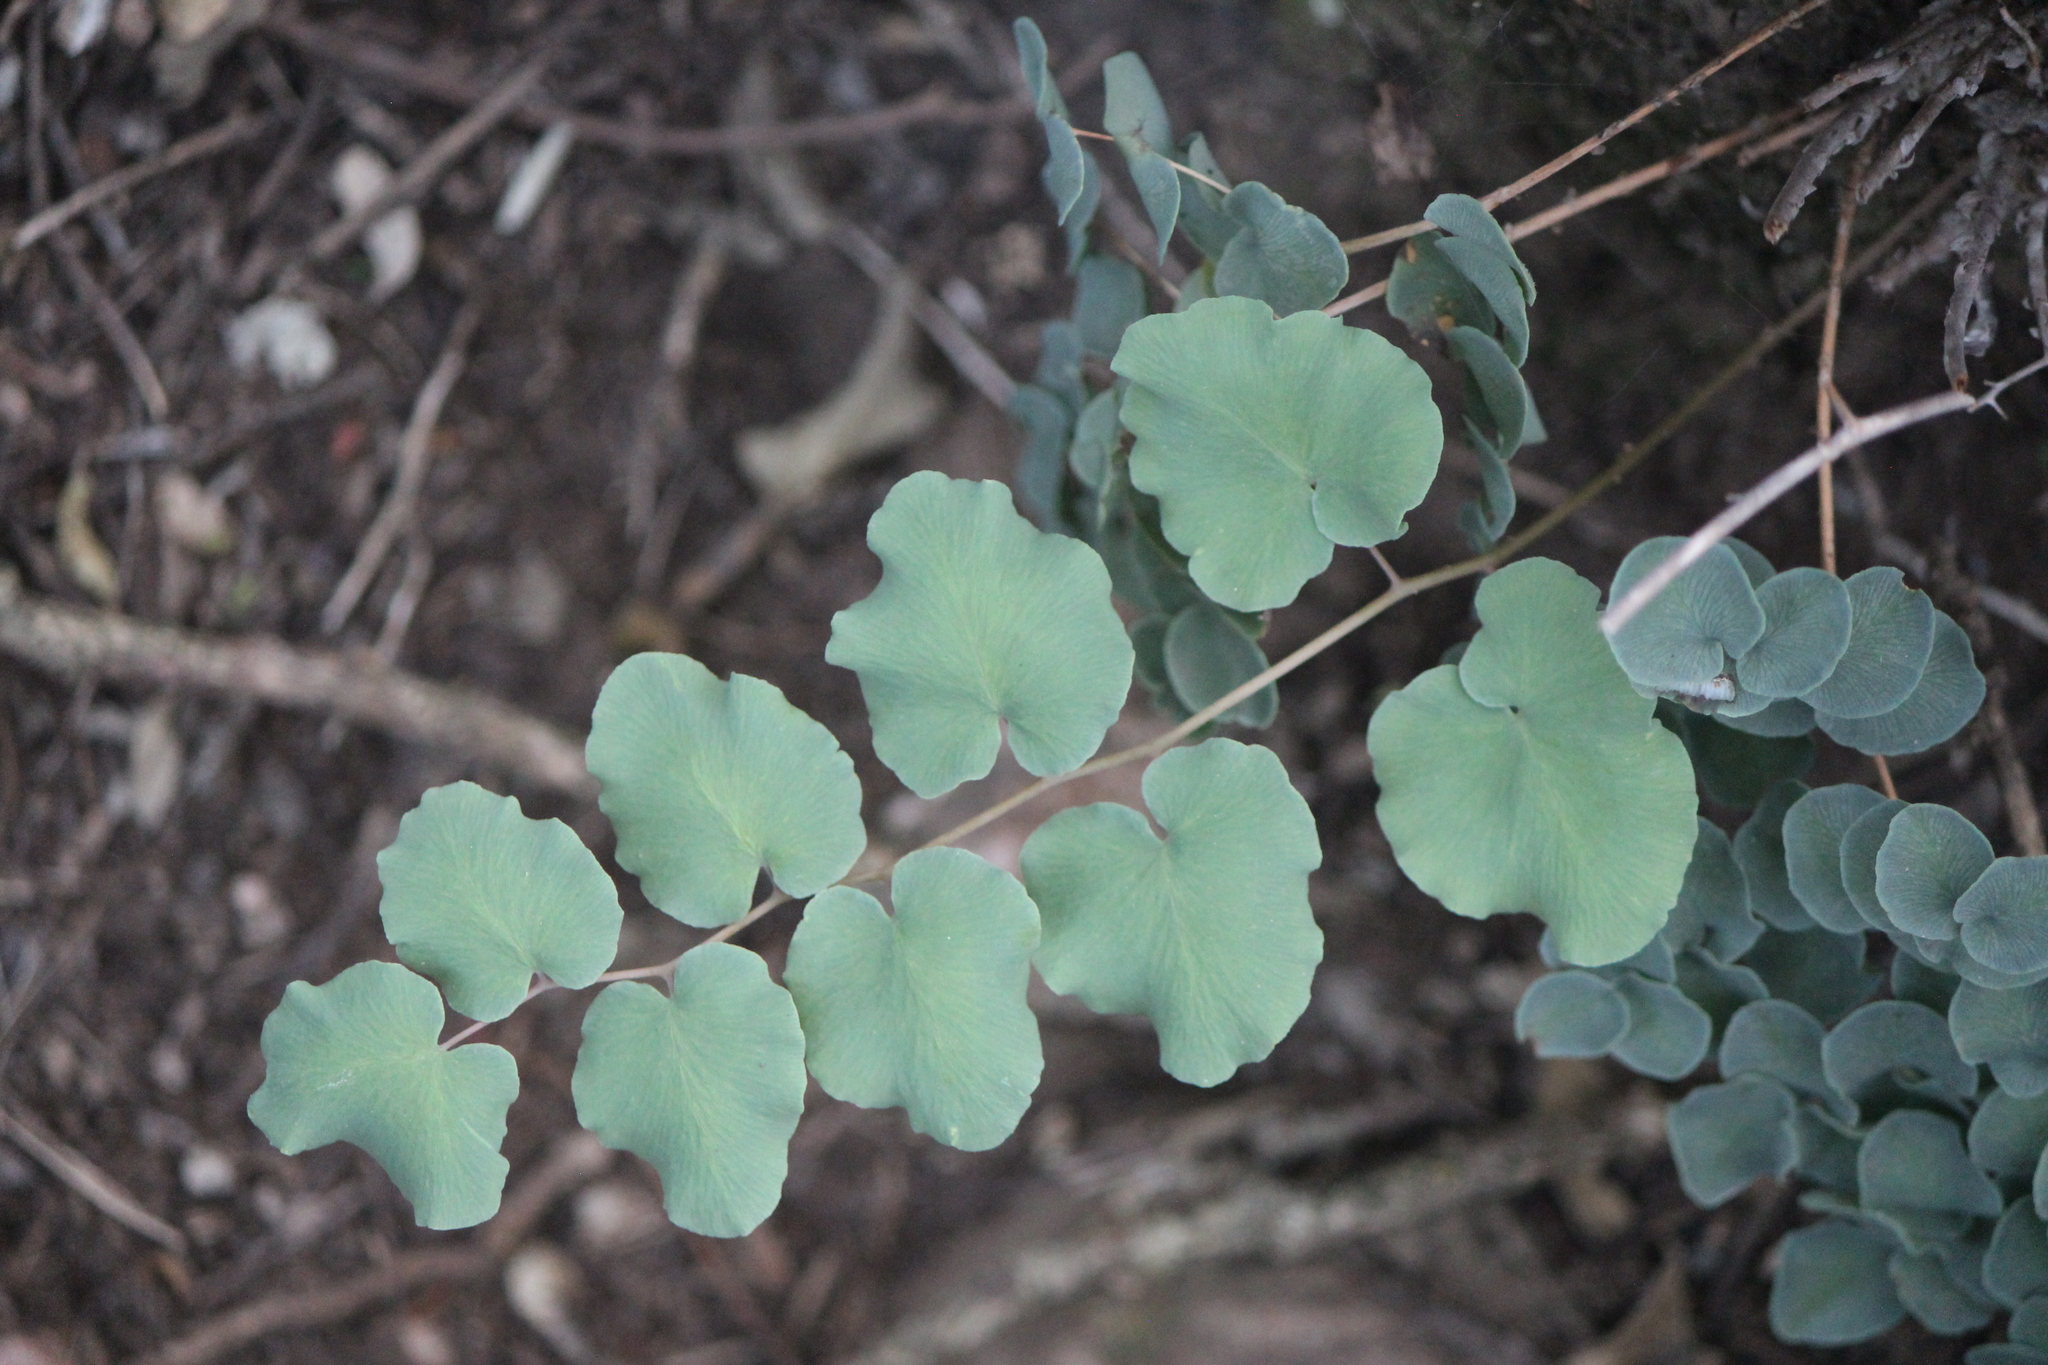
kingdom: Plantae
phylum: Tracheophyta
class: Polypodiopsida
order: Polypodiales
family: Pteridaceae
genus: Pellaea
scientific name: Pellaea cordifolia
